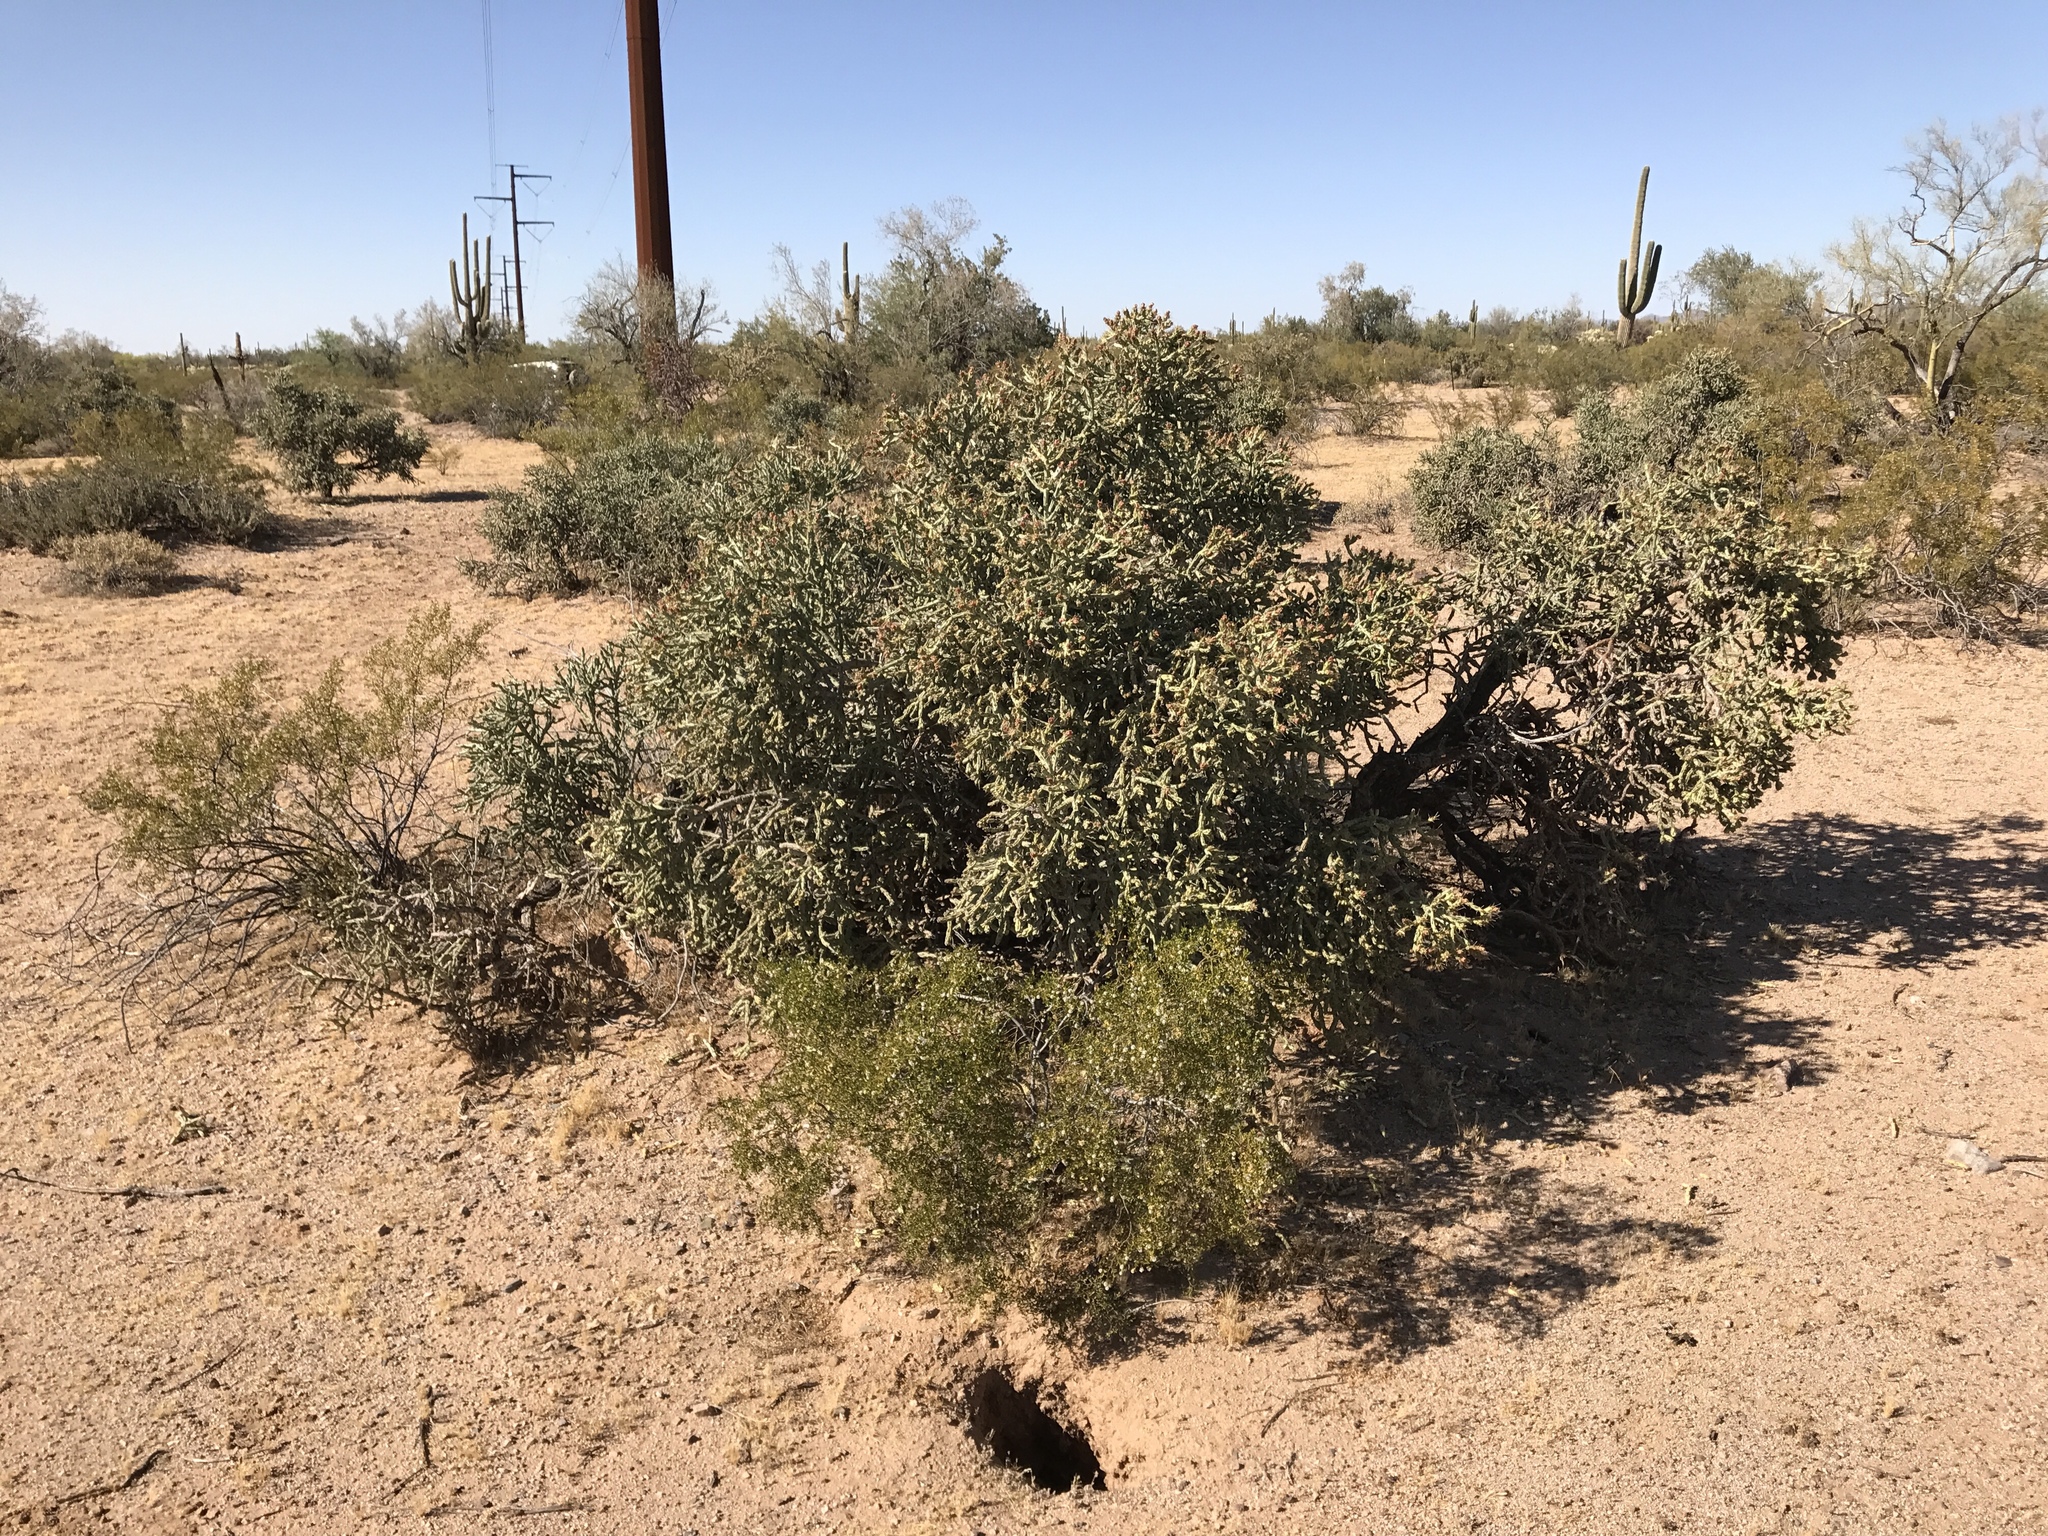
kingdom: Plantae
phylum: Tracheophyta
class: Magnoliopsida
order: Caryophyllales
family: Cactaceae
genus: Cylindropuntia
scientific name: Cylindropuntia arbuscula
